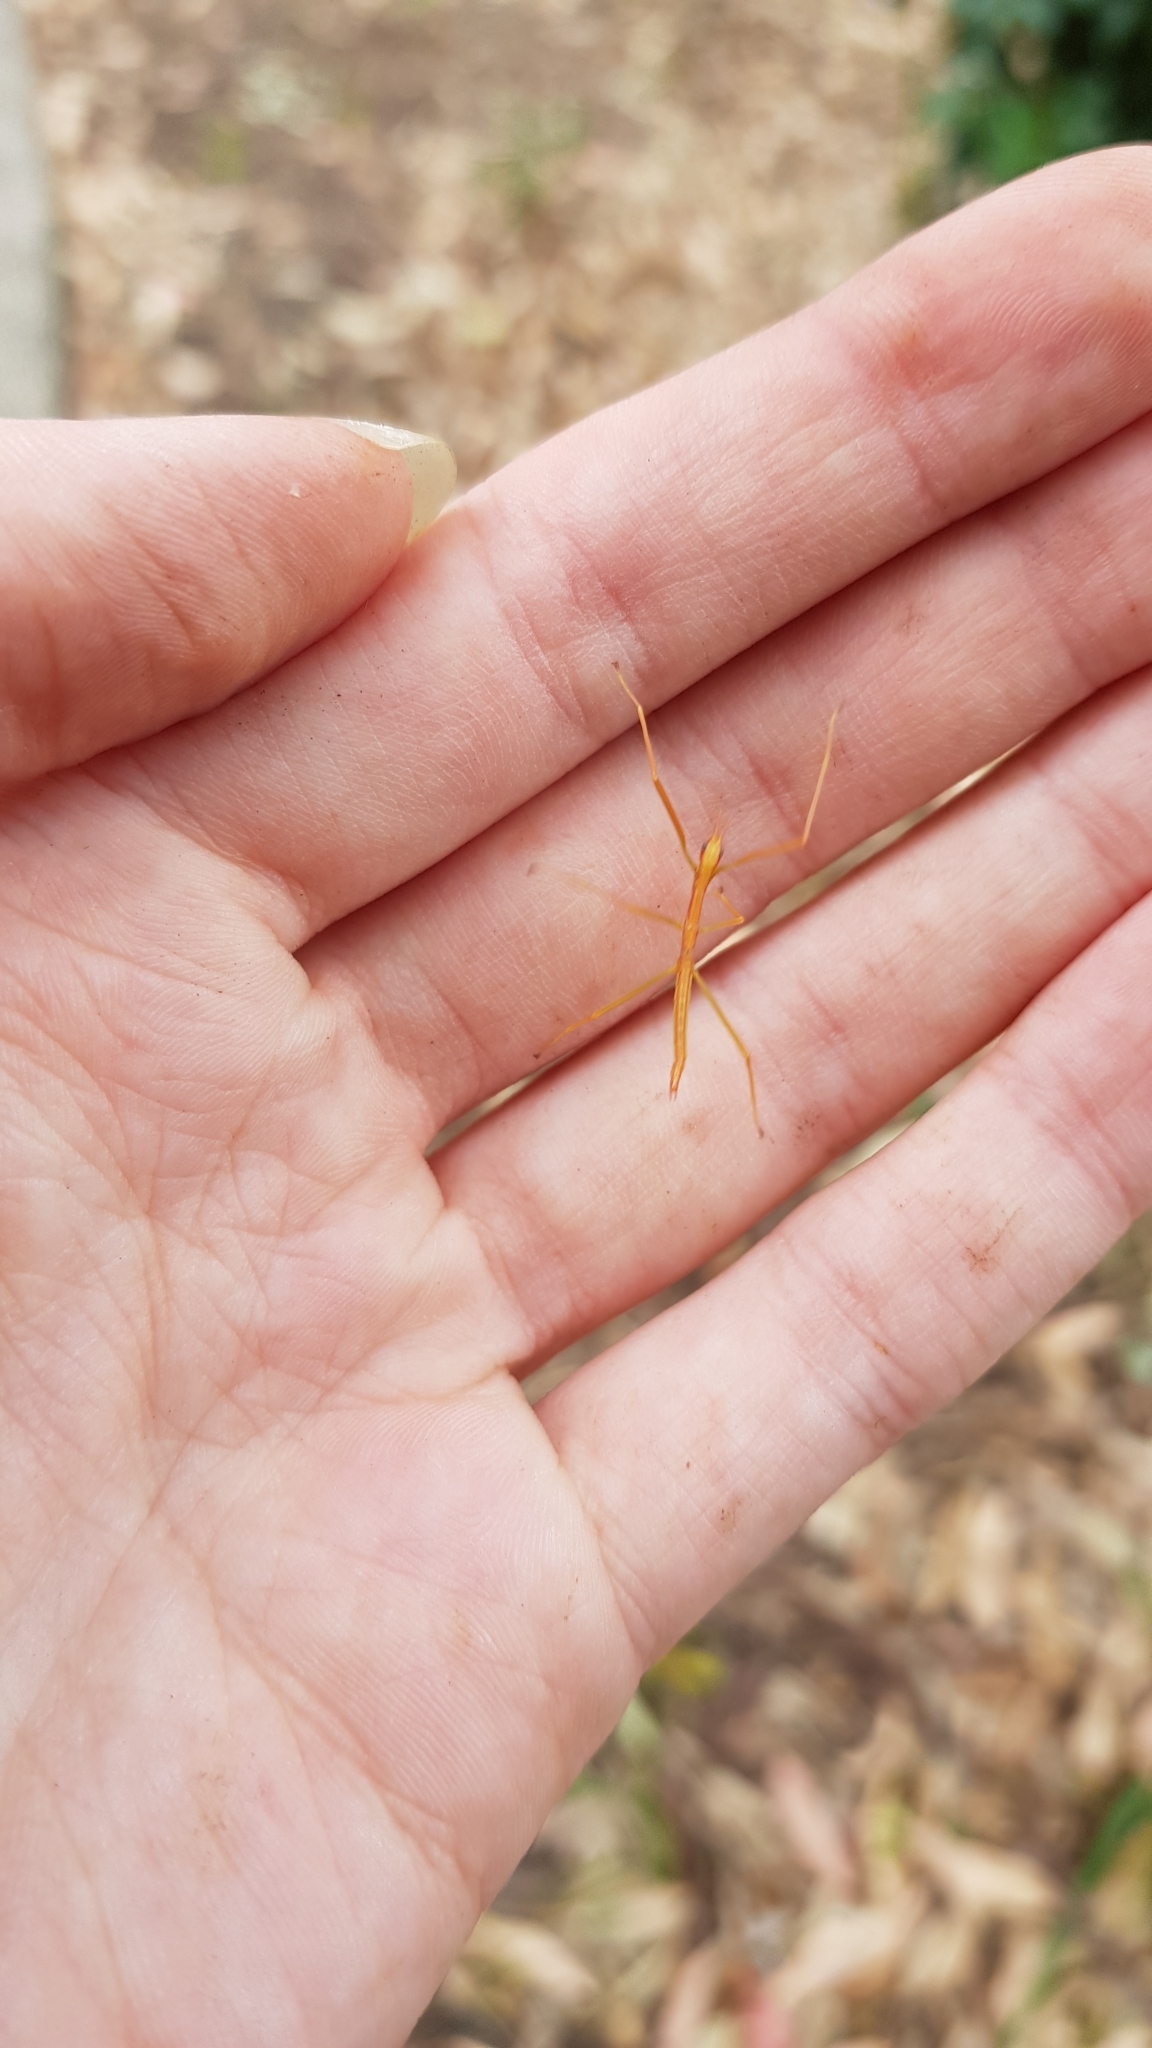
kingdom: Animalia
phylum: Arthropoda
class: Insecta
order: Phasmida
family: Phasmatidae
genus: Didymuria
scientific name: Didymuria violescens
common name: Spur-legged stick-insect
